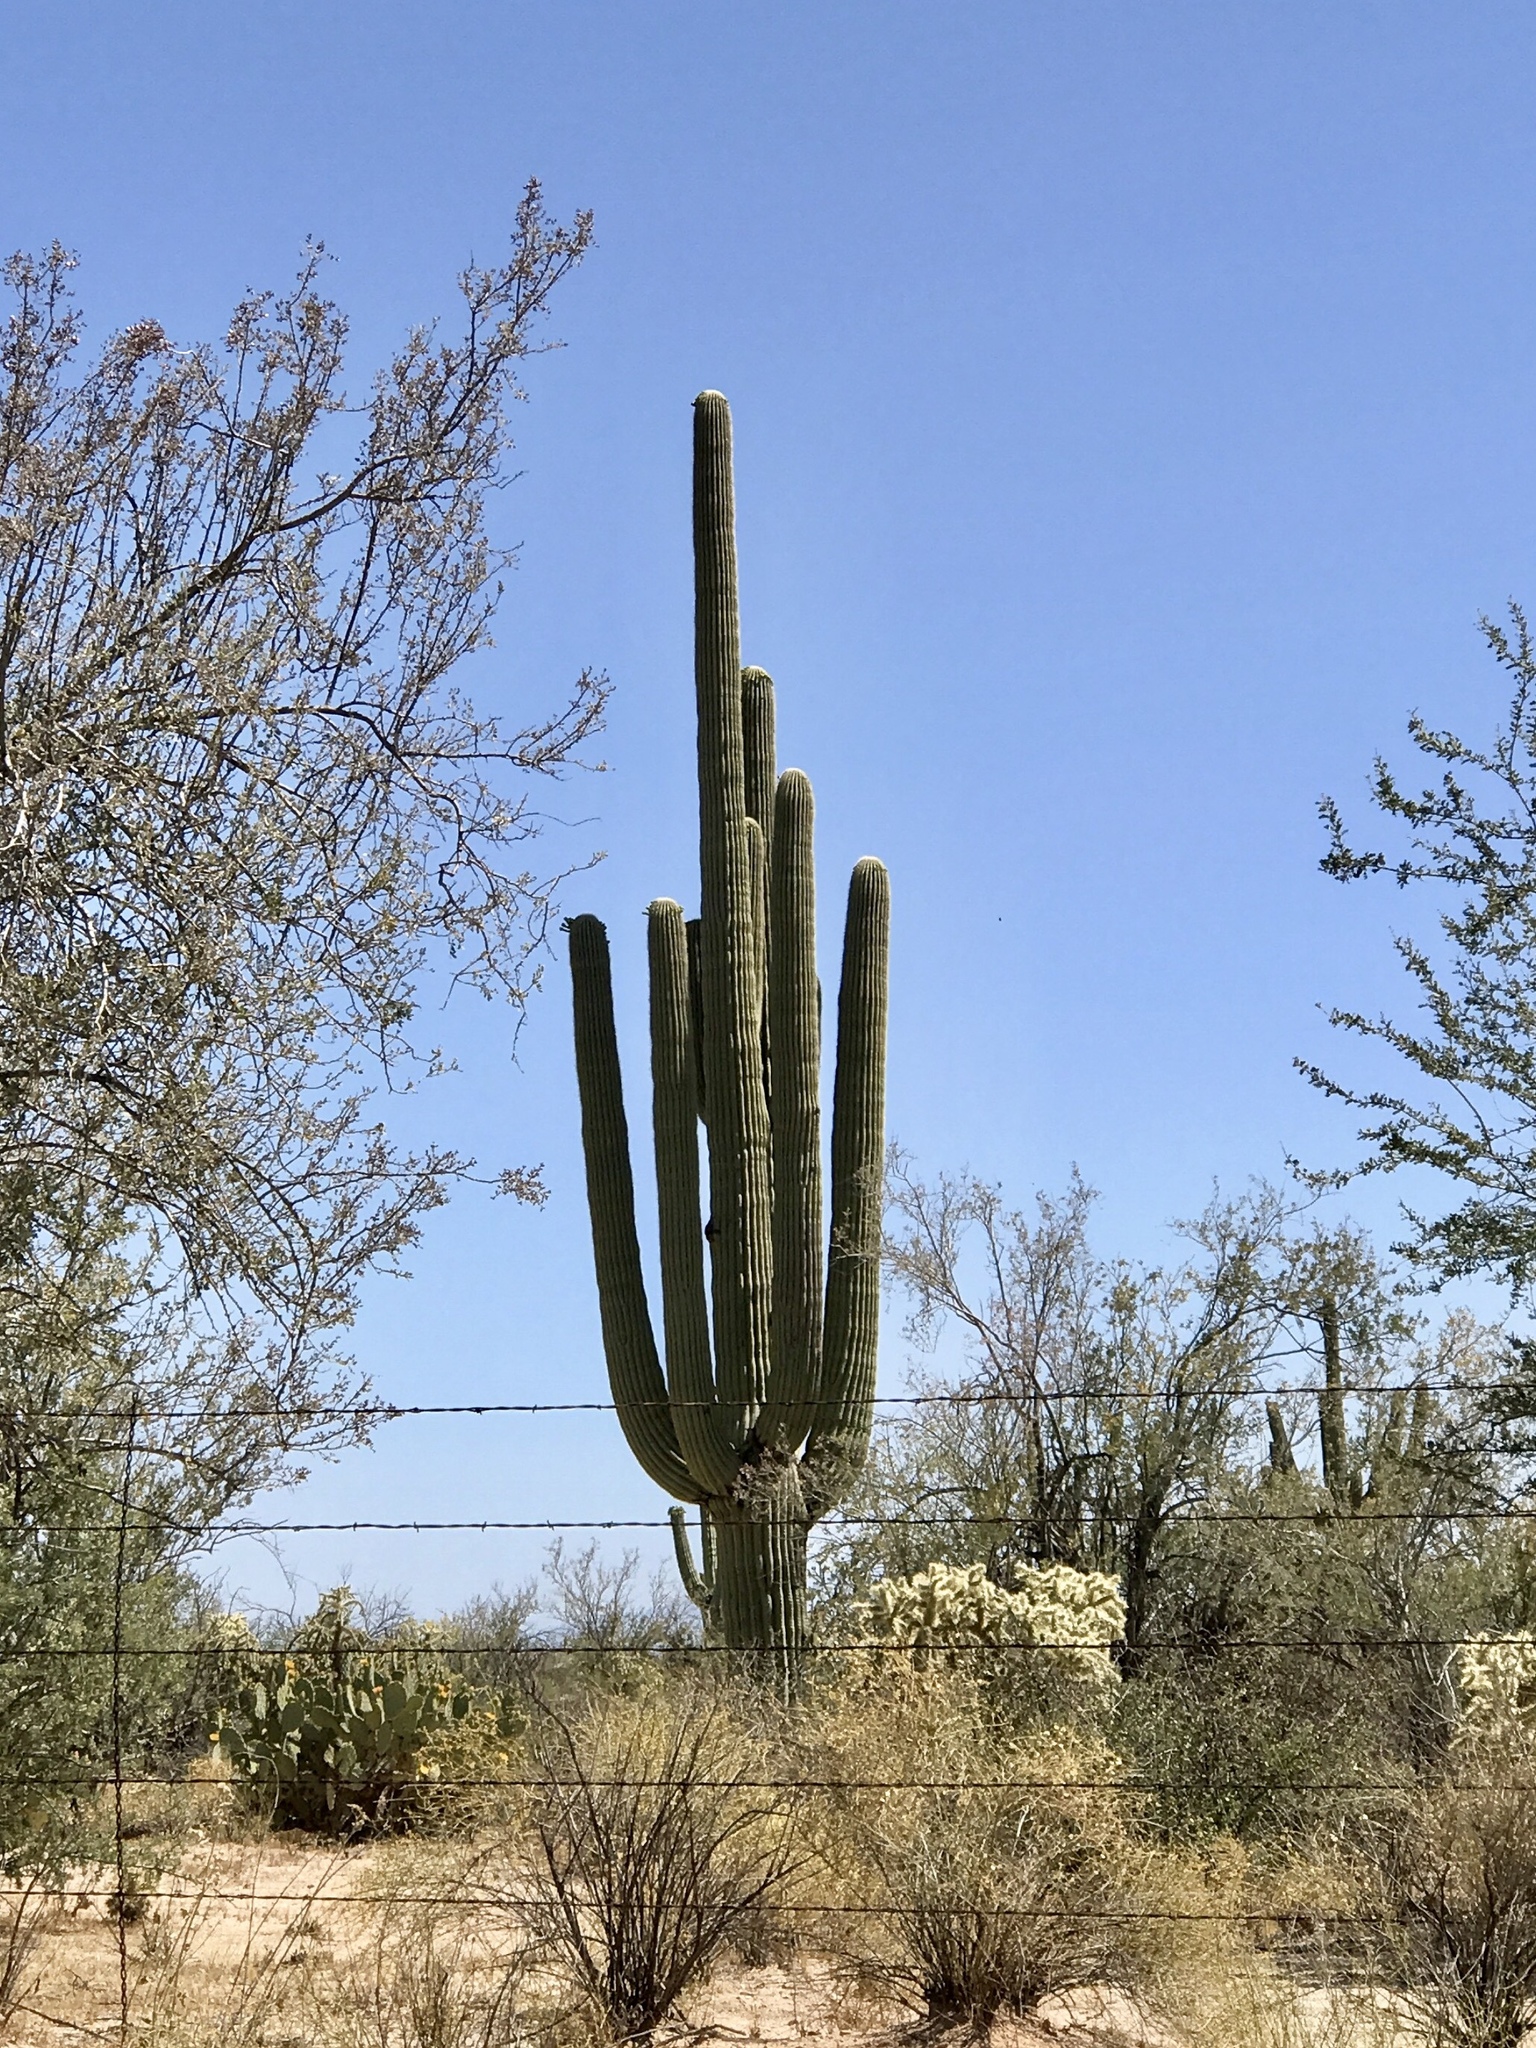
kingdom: Plantae
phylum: Tracheophyta
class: Magnoliopsida
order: Caryophyllales
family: Cactaceae
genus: Carnegiea
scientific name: Carnegiea gigantea
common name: Saguaro
